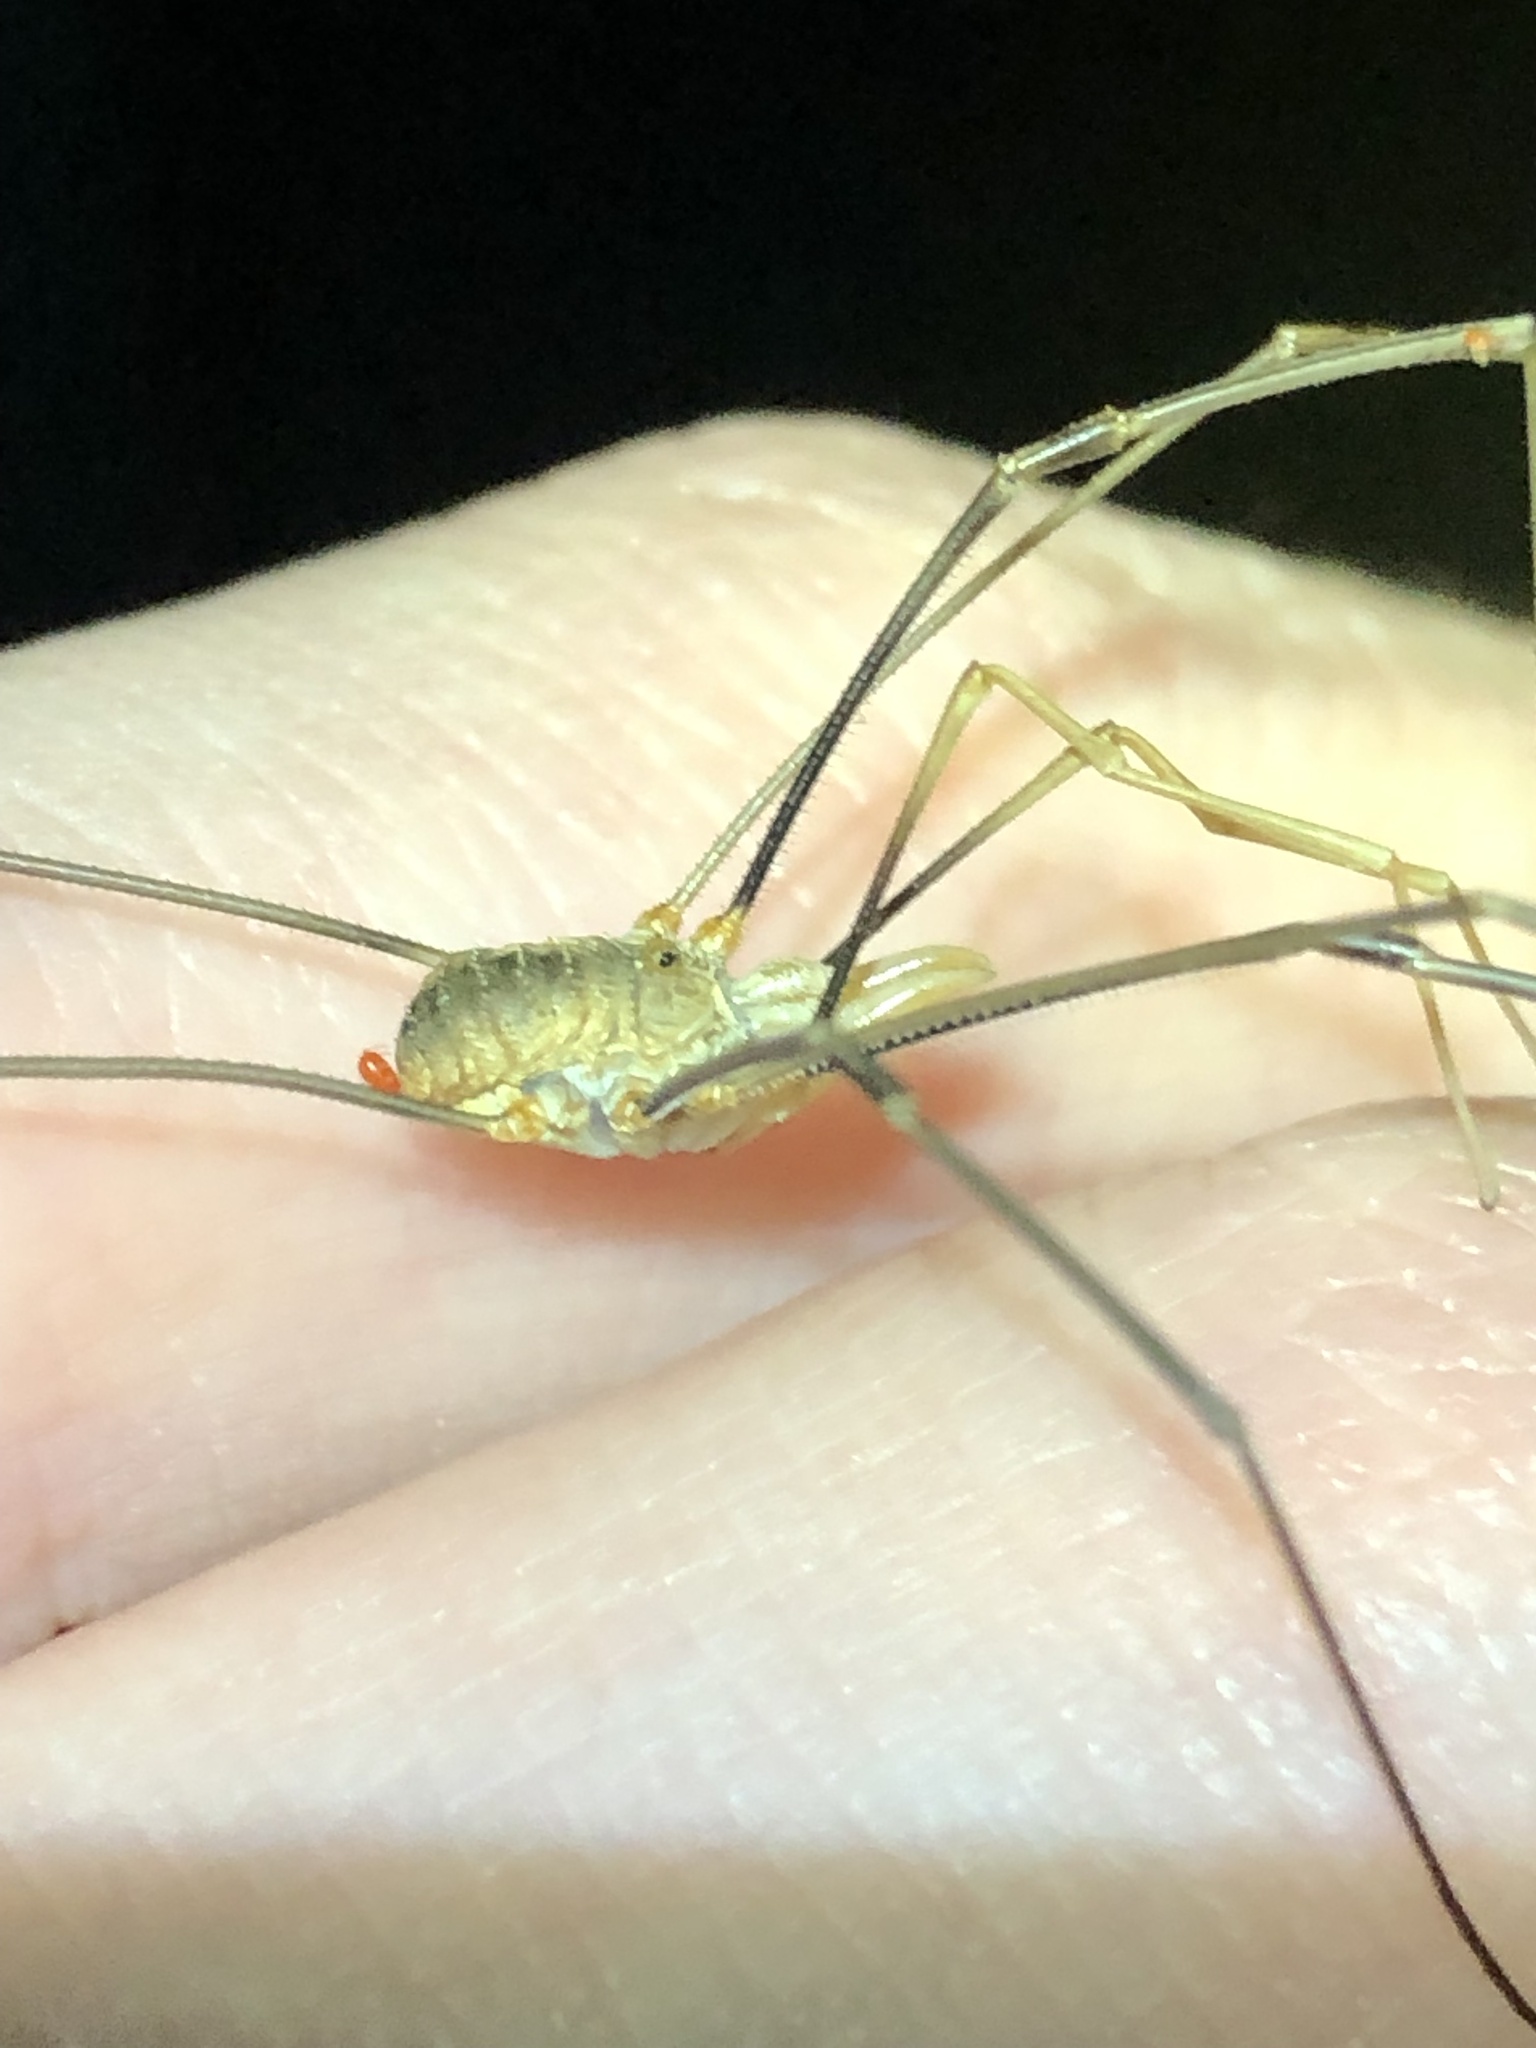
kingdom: Animalia
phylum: Arthropoda
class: Arachnida
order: Opiliones
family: Phalangiidae
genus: Phalangium
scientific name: Phalangium opilio
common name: Daddy longleg
